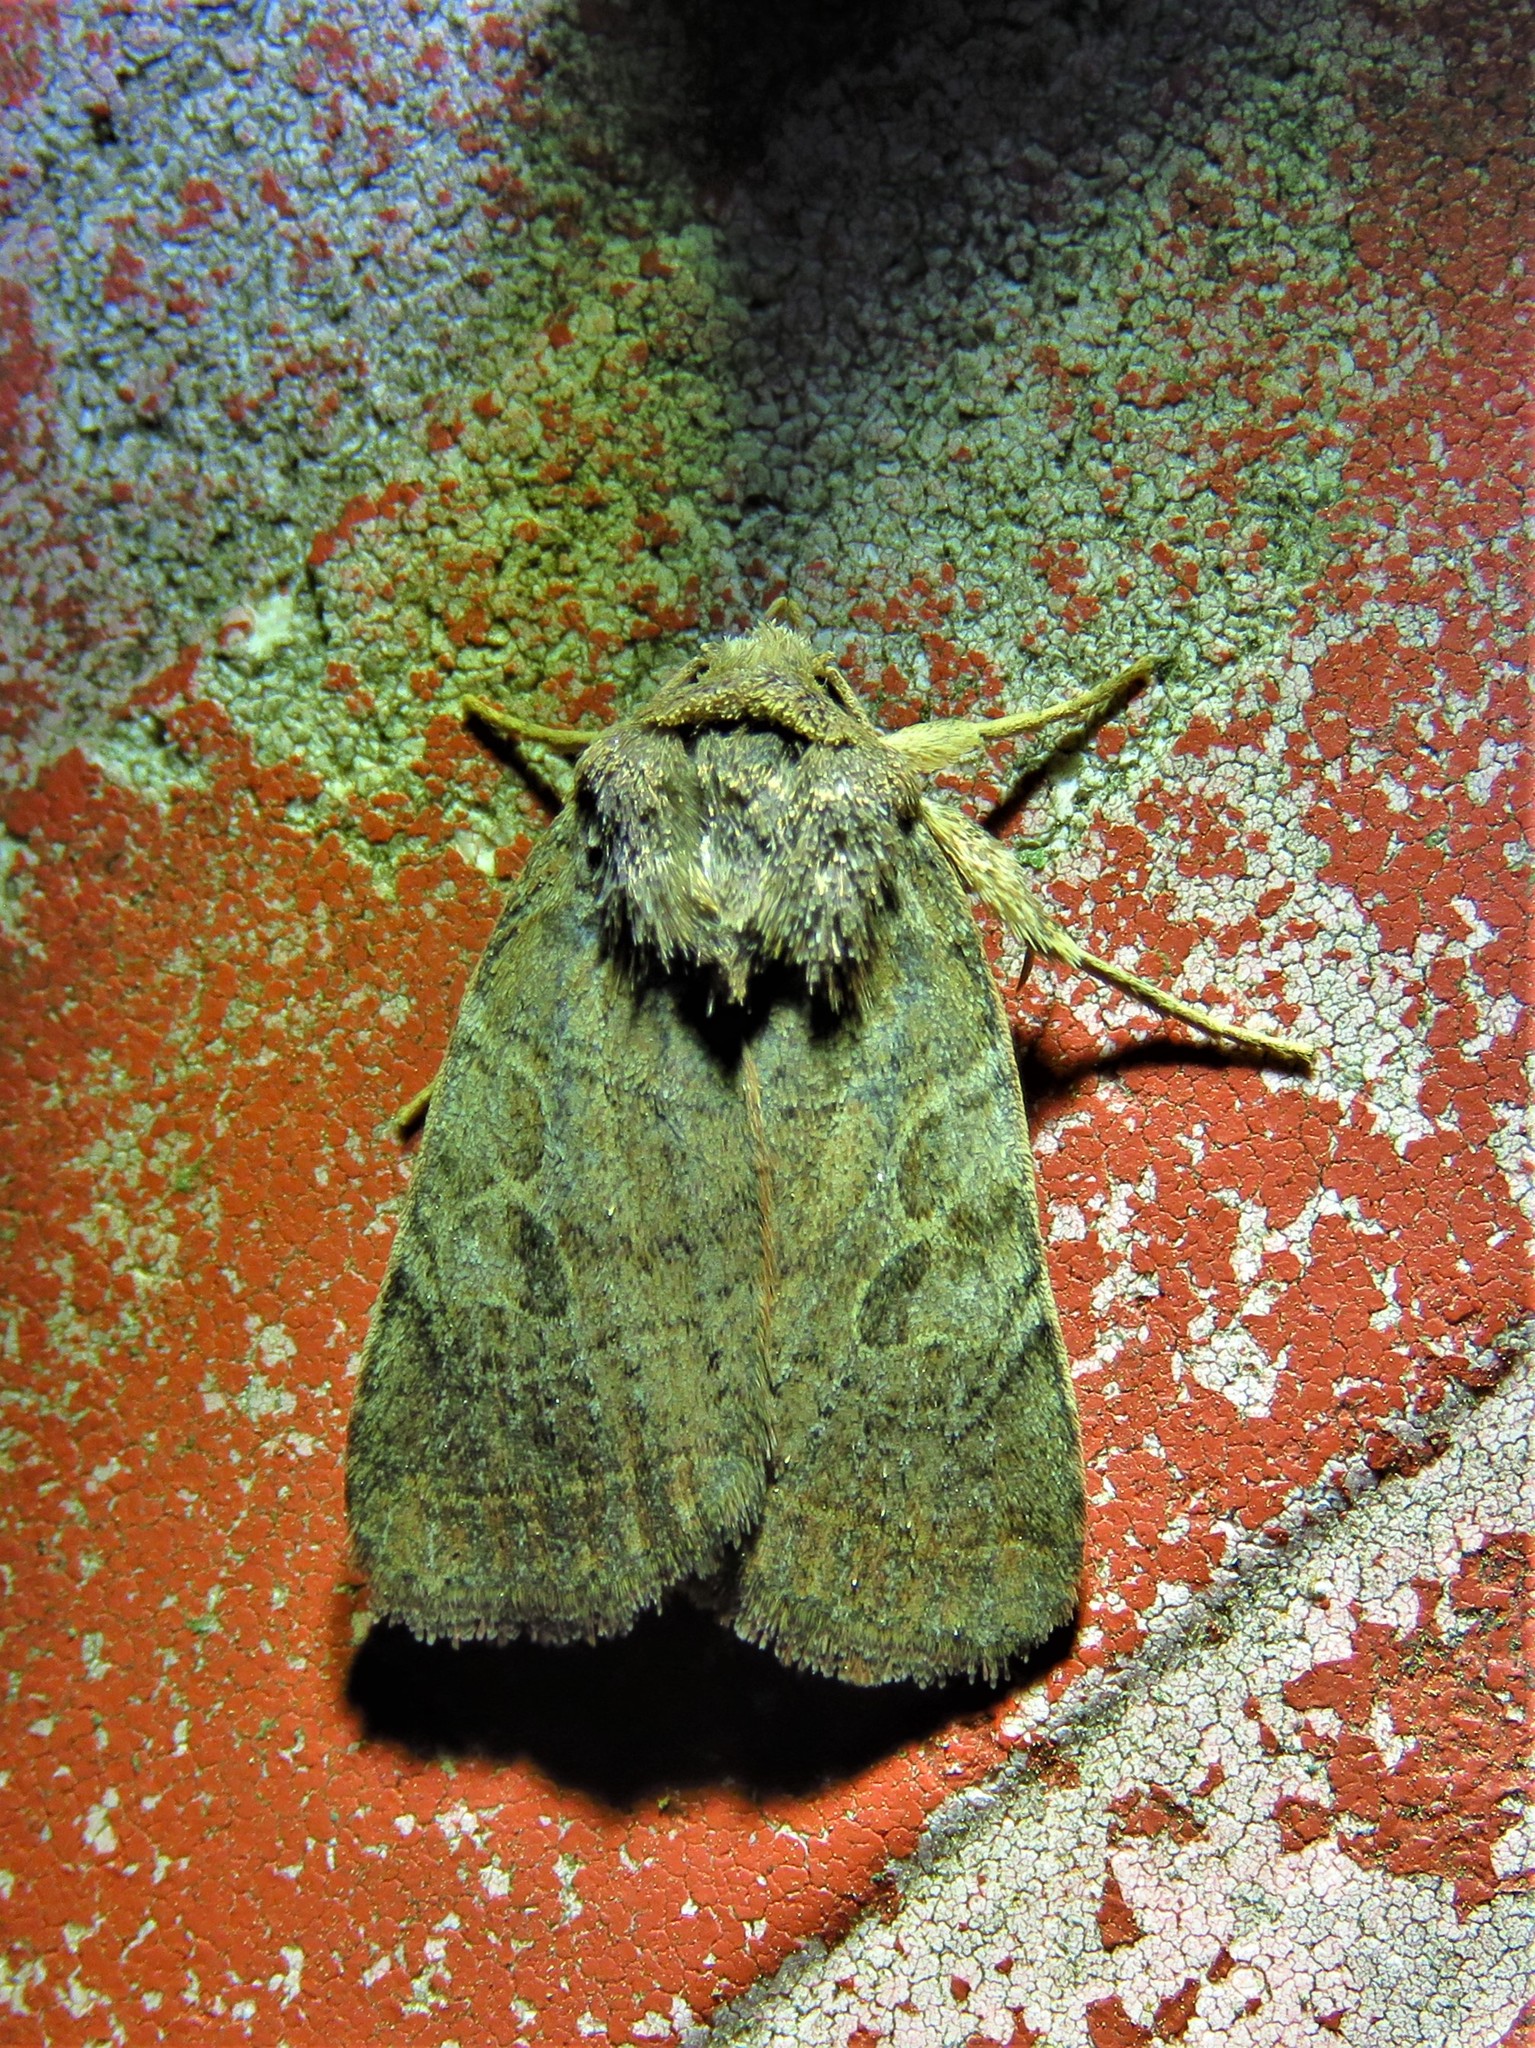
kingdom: Animalia
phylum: Arthropoda
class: Insecta
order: Lepidoptera
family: Noctuidae
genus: Orthodes
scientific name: Orthodes furtiva
